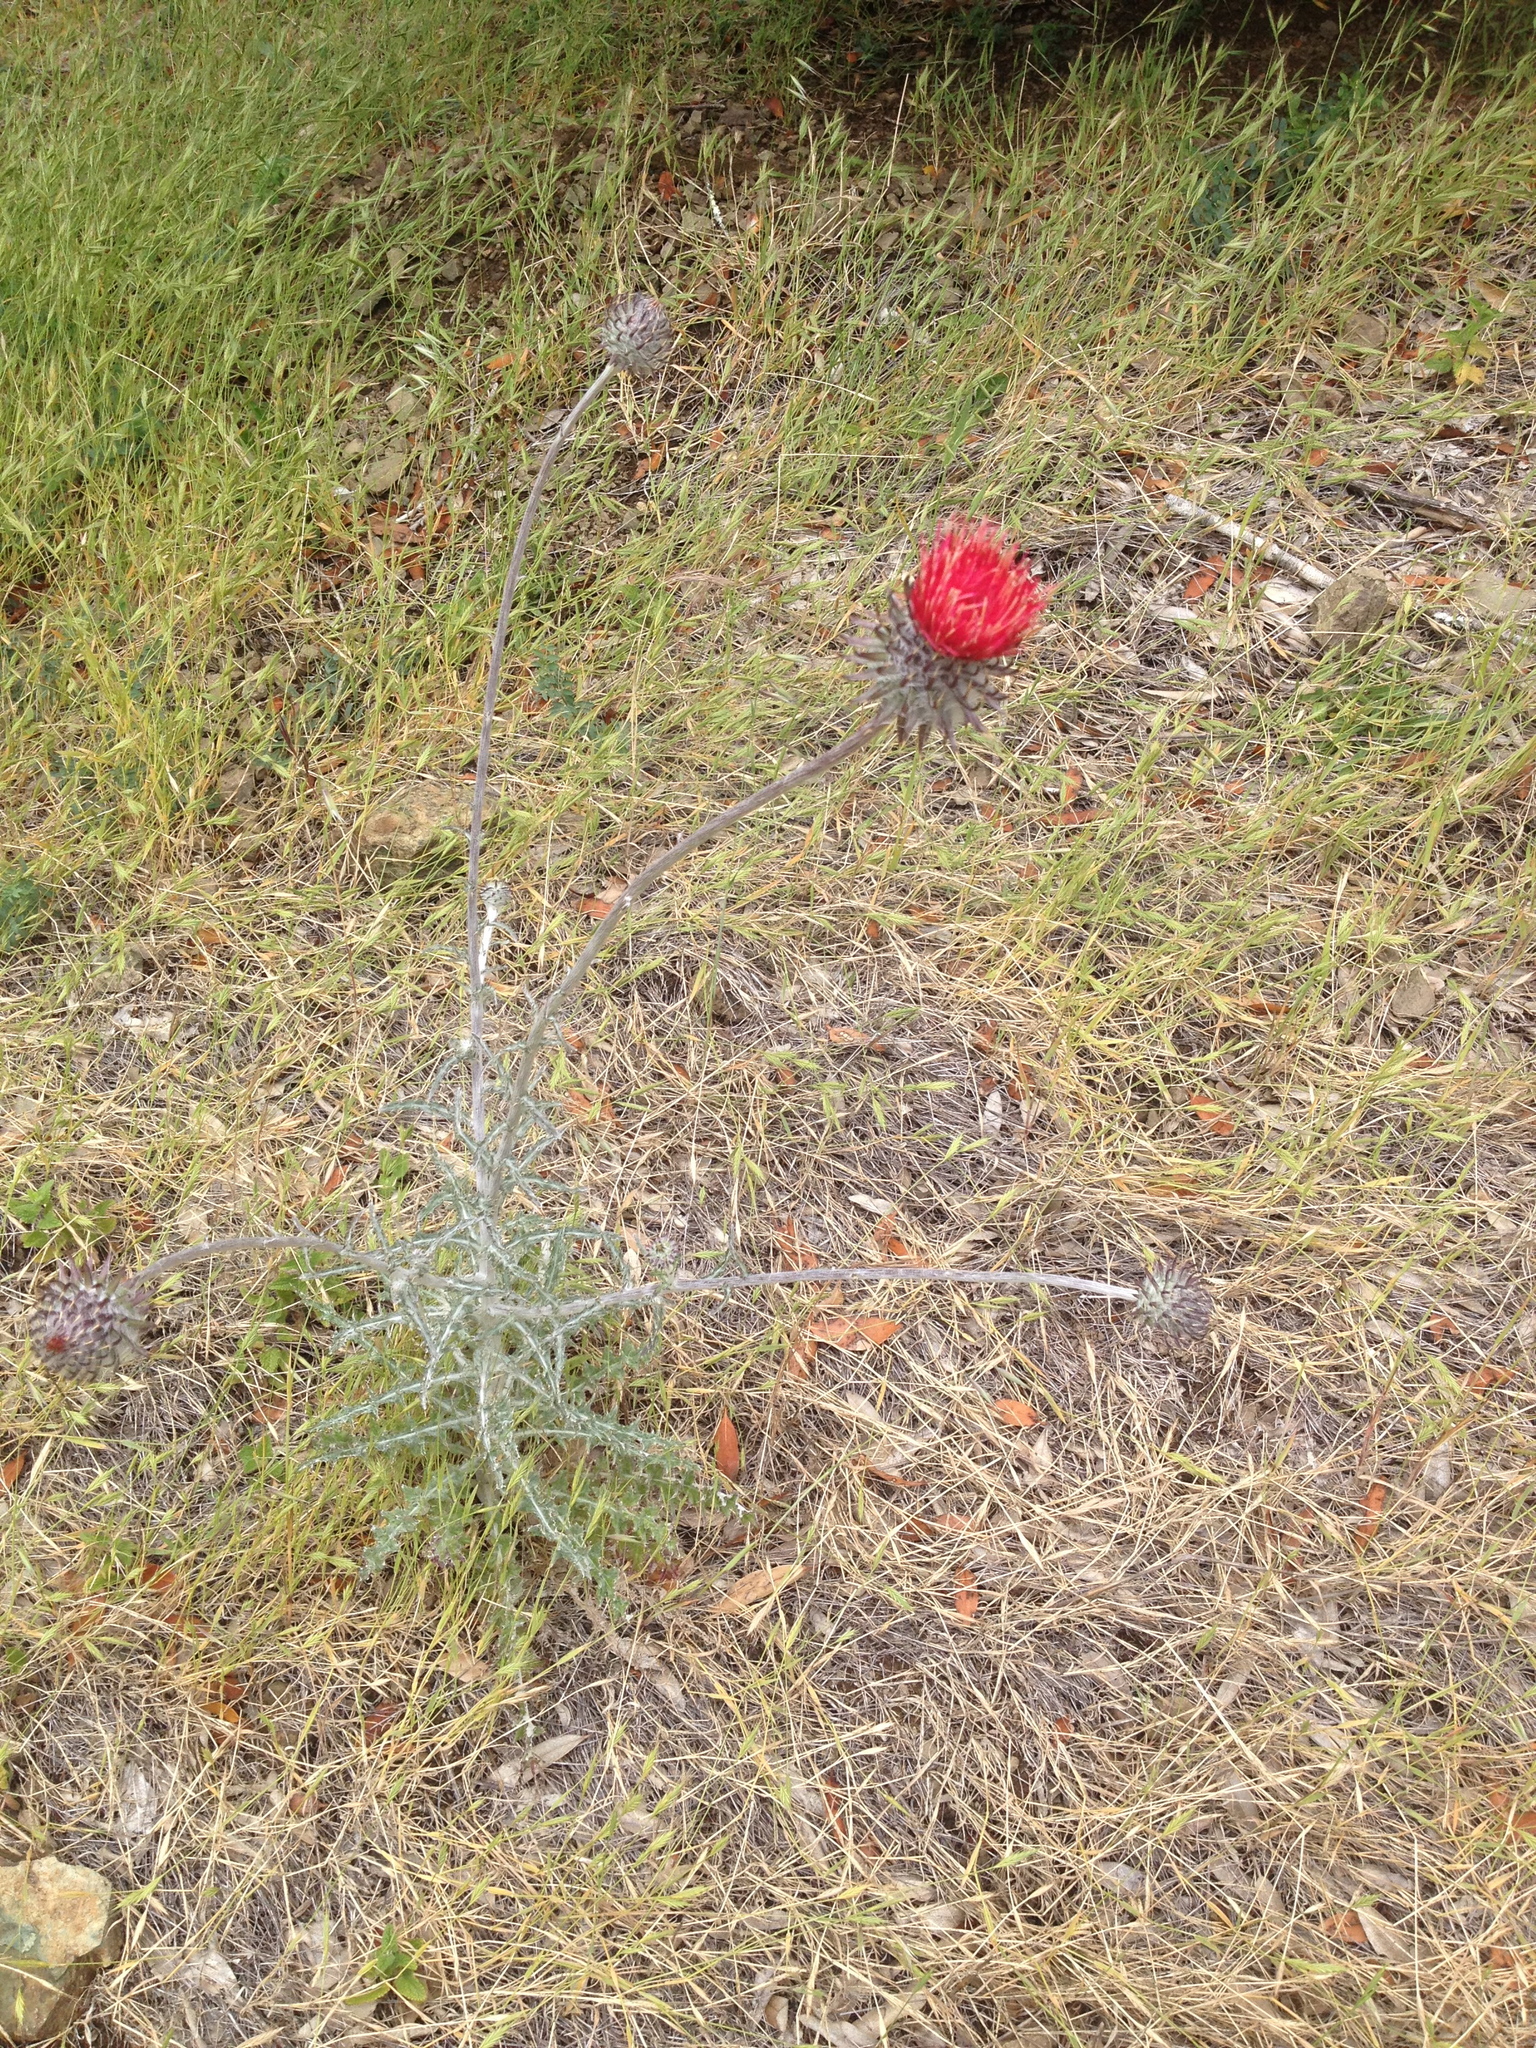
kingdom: Plantae
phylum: Tracheophyta
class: Magnoliopsida
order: Asterales
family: Asteraceae
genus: Cirsium
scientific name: Cirsium occidentale
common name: Western thistle
